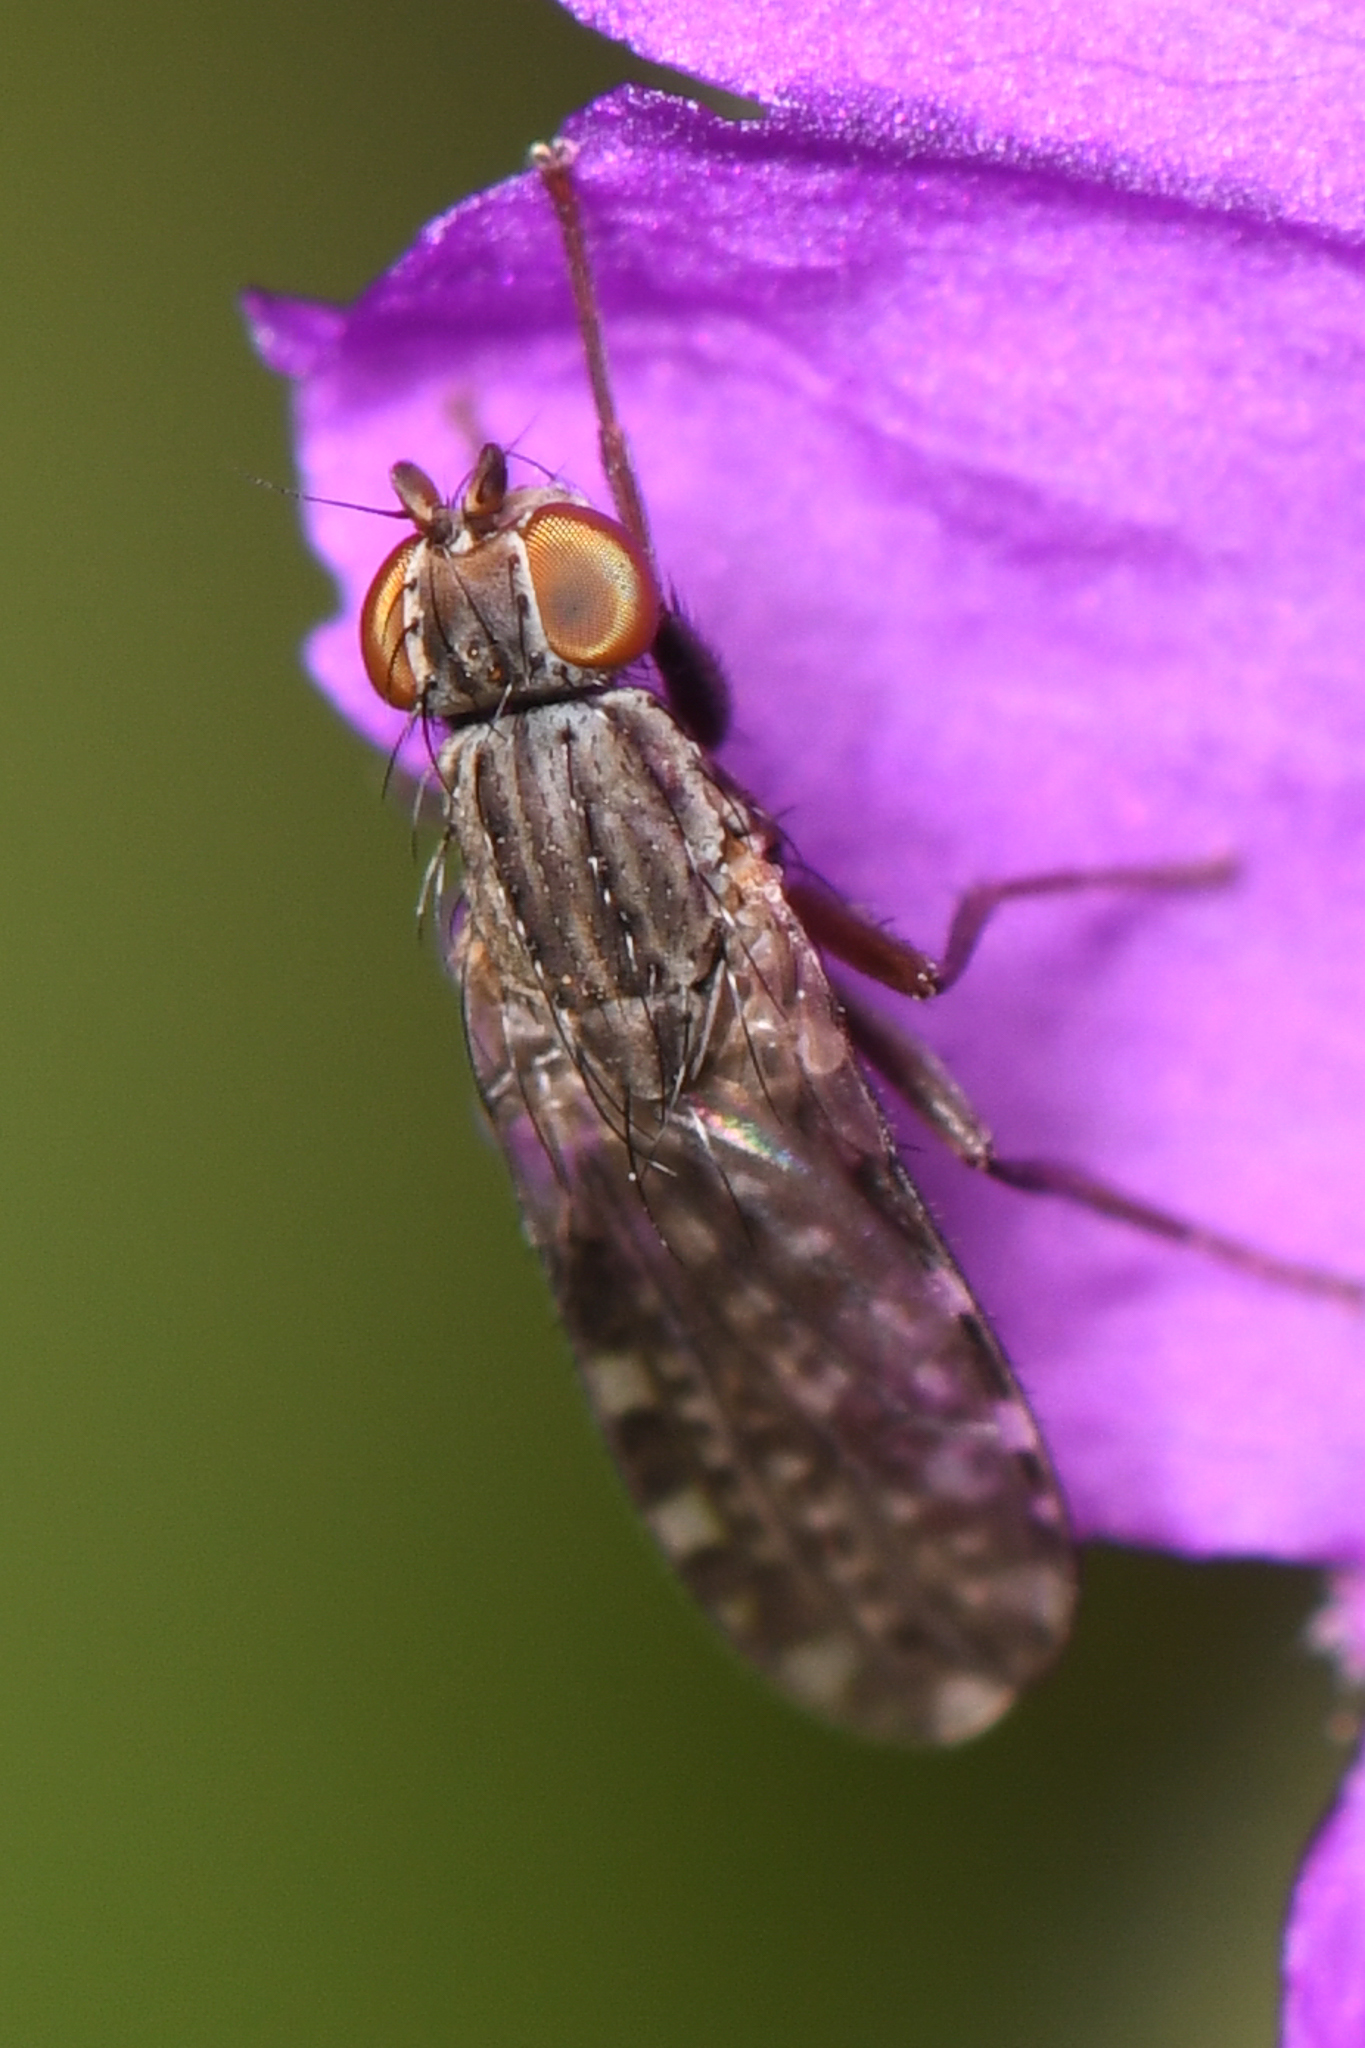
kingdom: Animalia
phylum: Arthropoda
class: Insecta
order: Diptera
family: Heleomyzidae
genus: Trixoscelis
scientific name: Trixoscelis punctipennis
